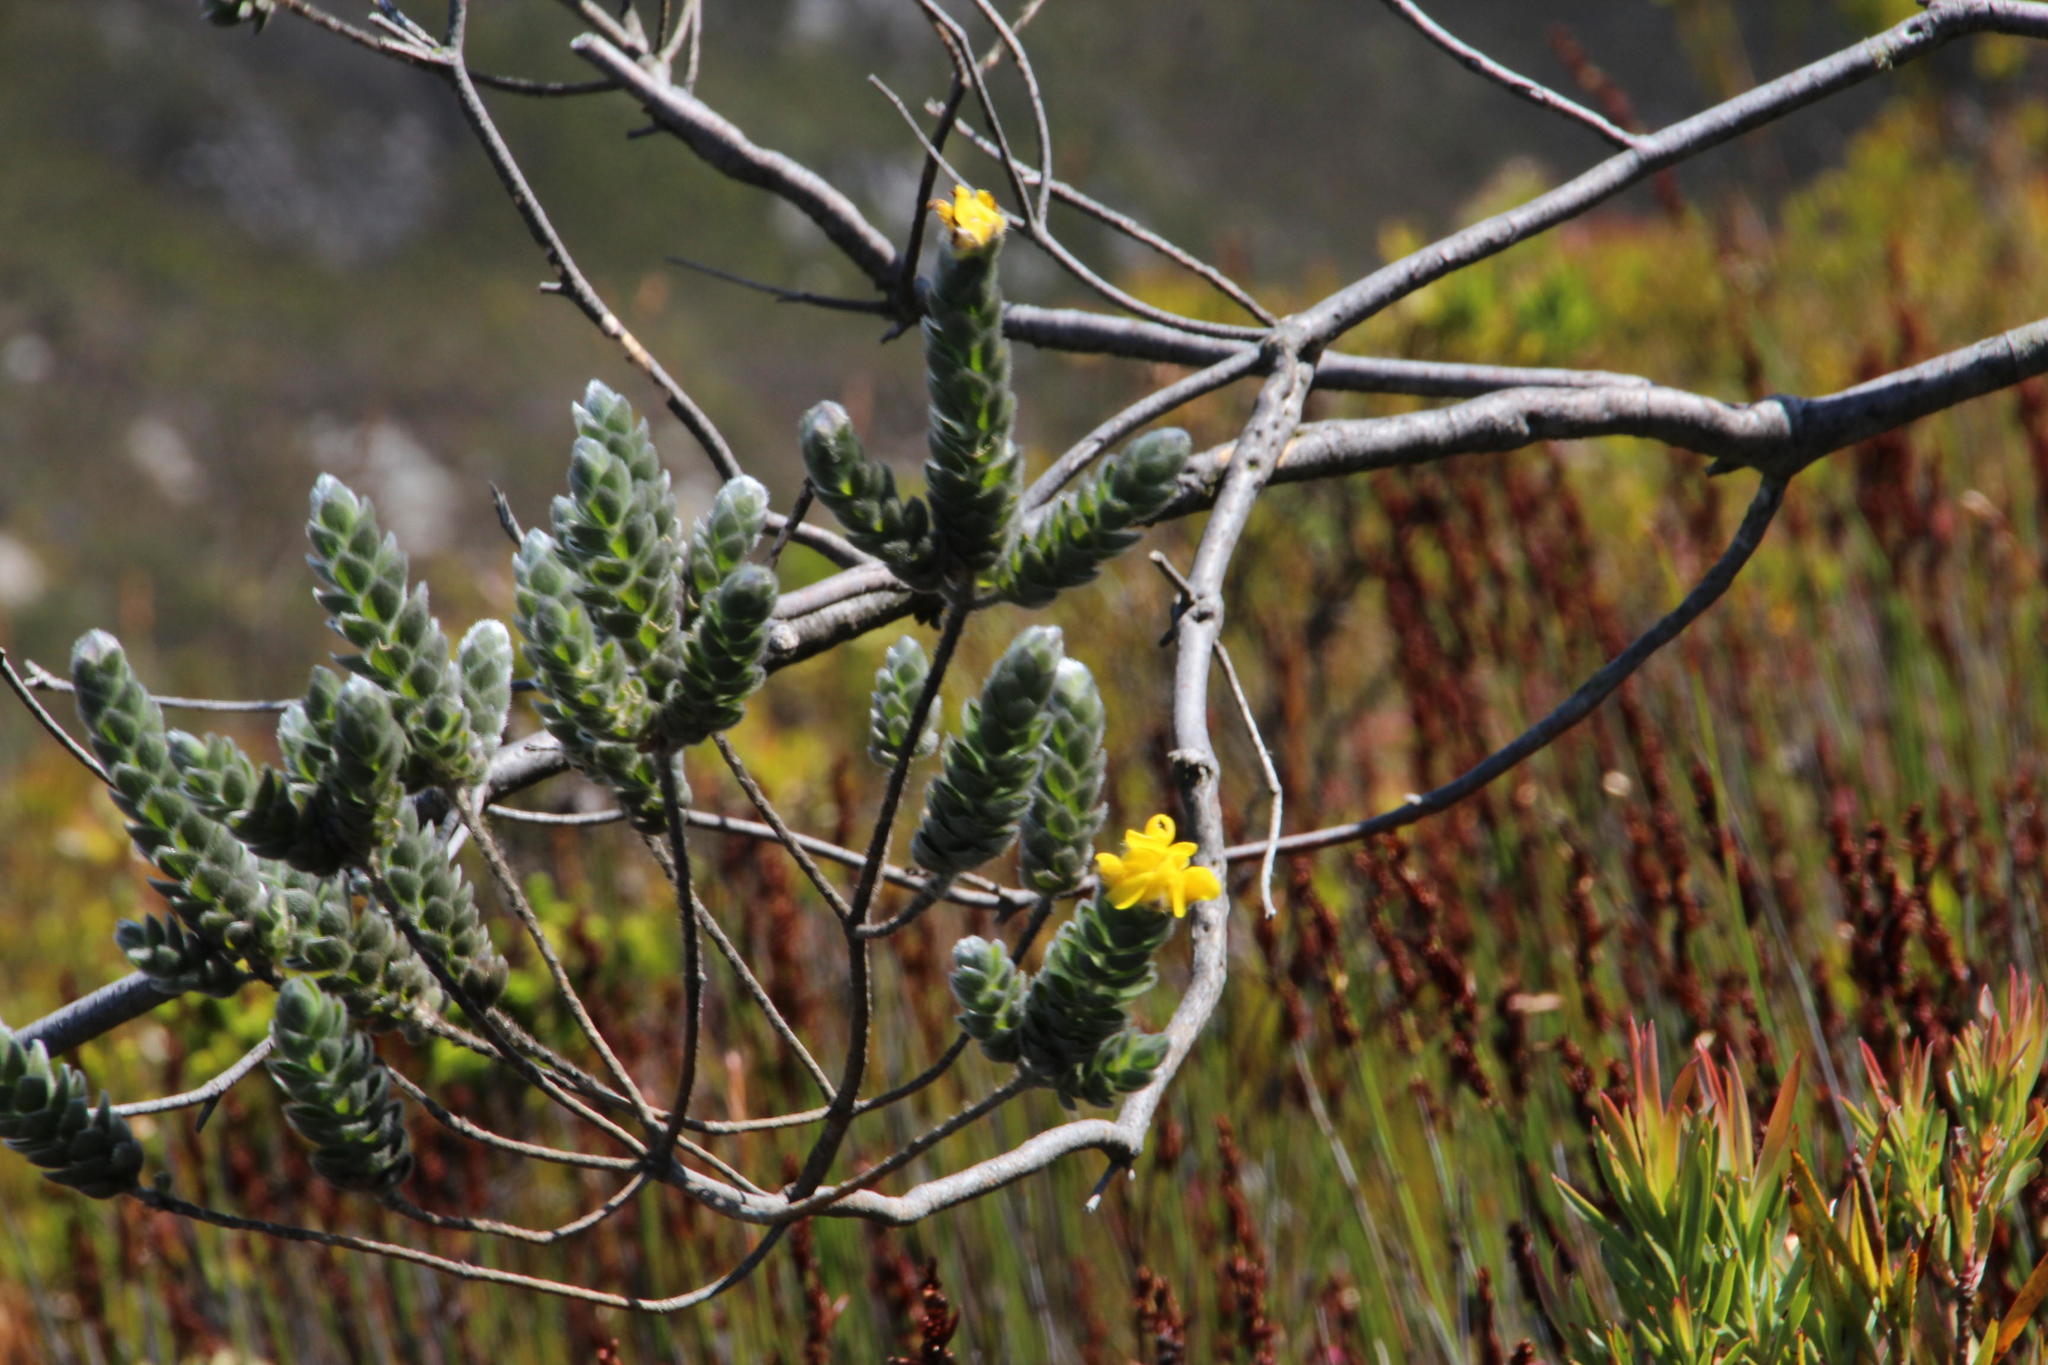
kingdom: Plantae
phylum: Tracheophyta
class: Magnoliopsida
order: Fabales
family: Fabaceae
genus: Liparia
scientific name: Liparia vestita
